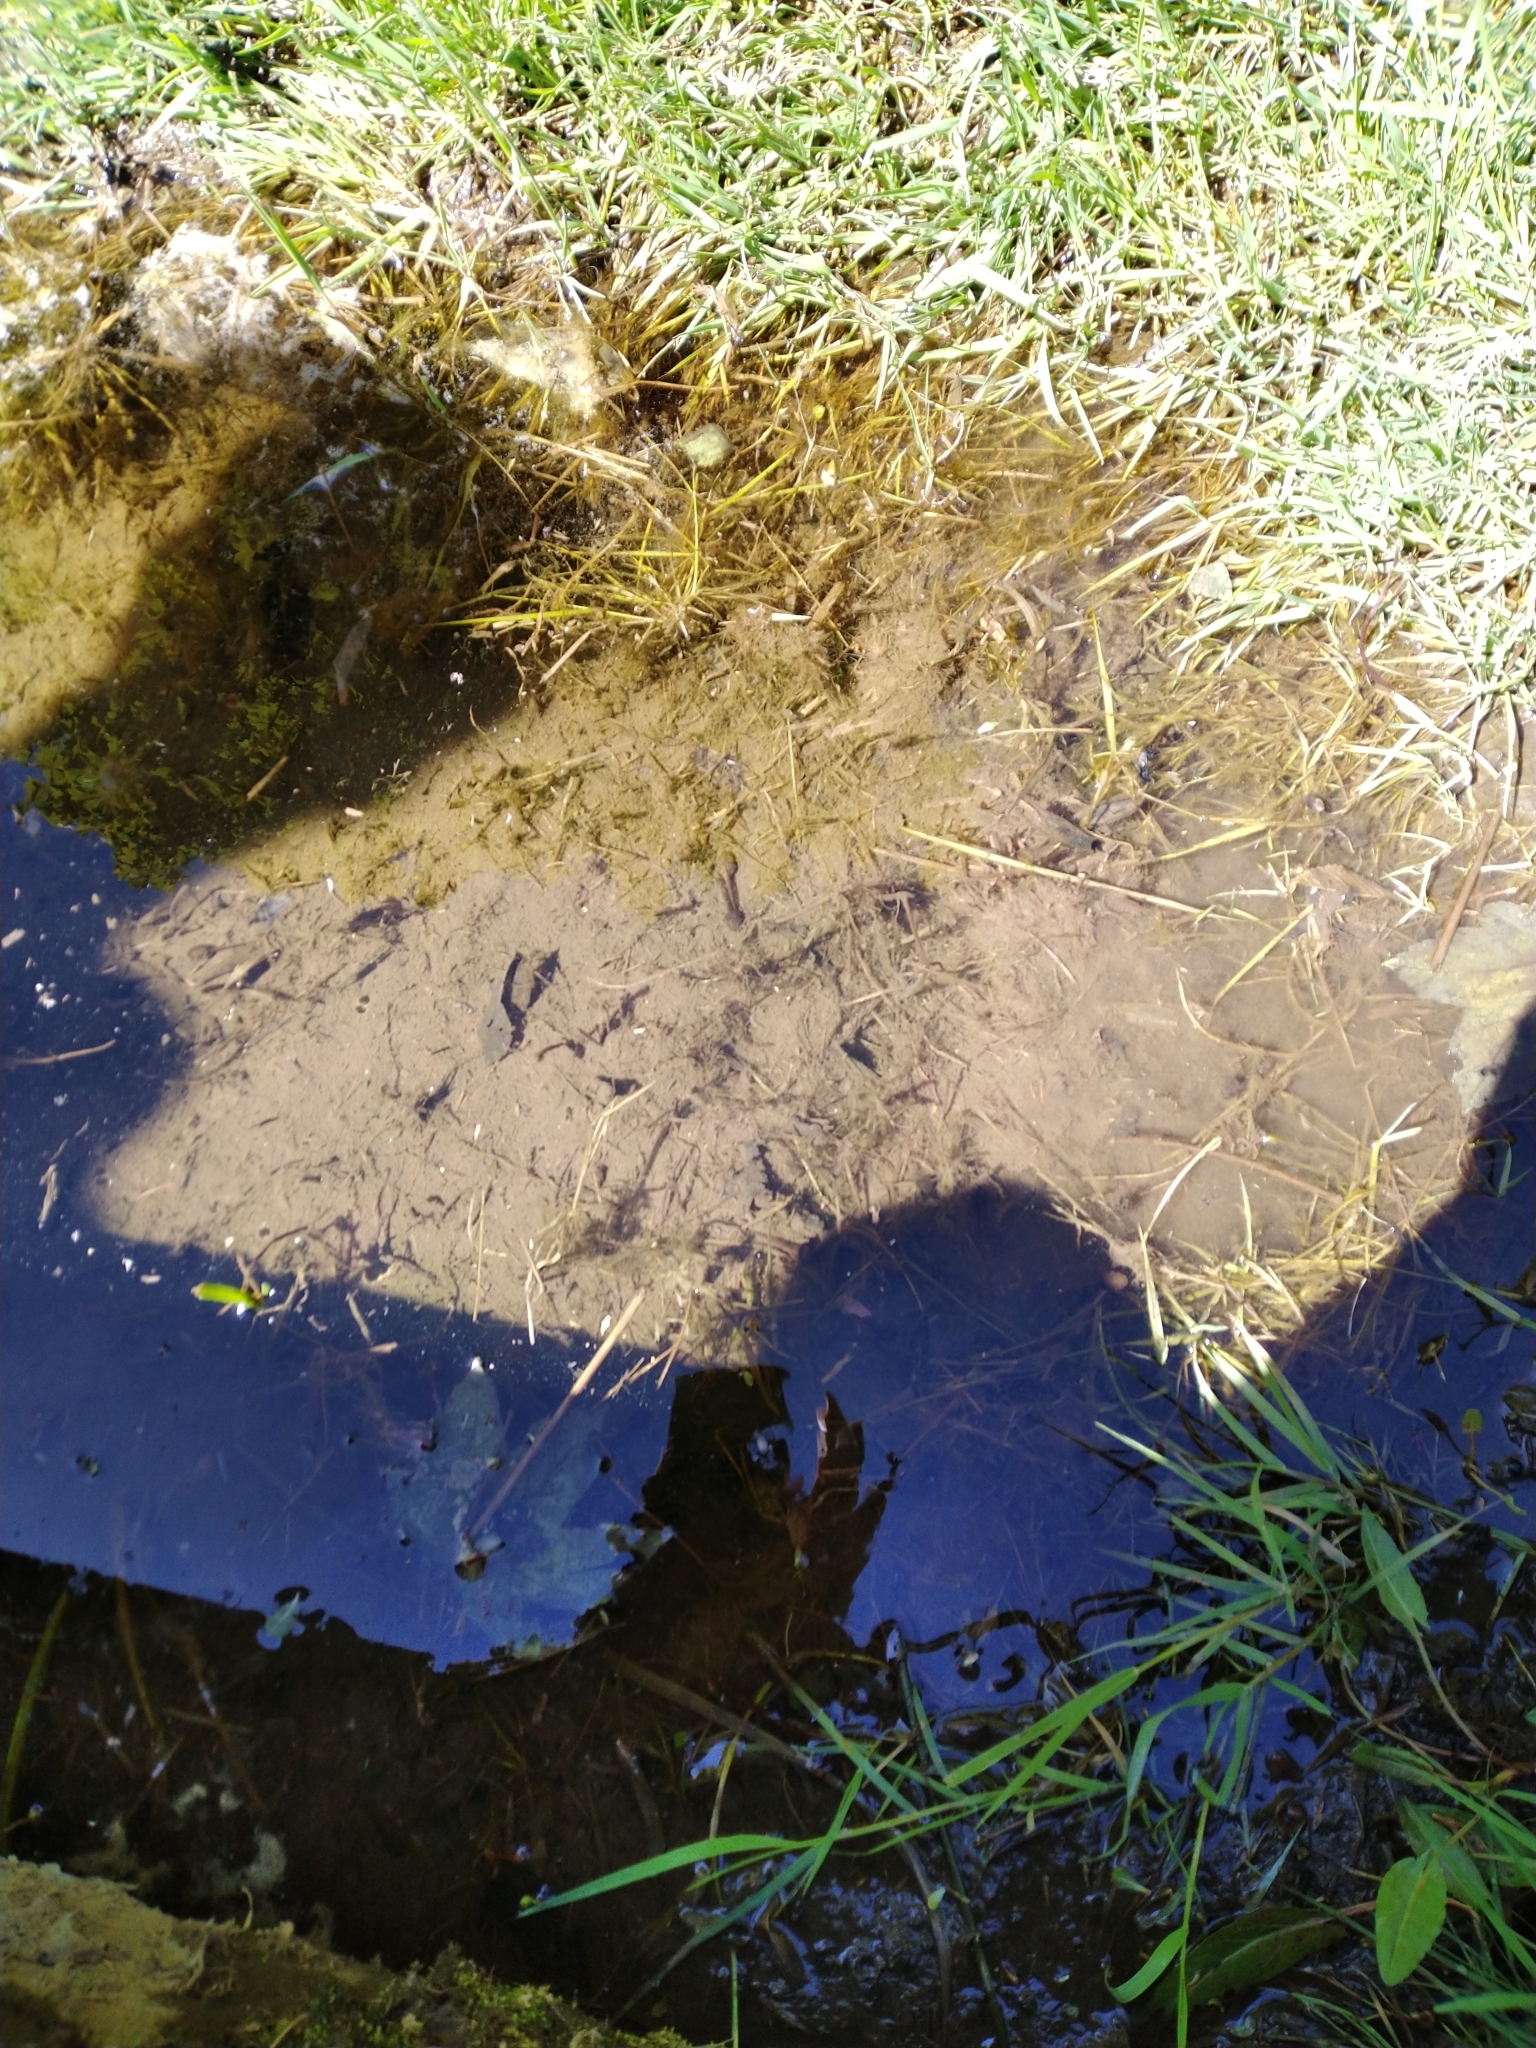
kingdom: Animalia
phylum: Chordata
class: Amphibia
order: Anura
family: Ranidae
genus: Rana
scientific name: Rana temporaria
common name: Common frog
